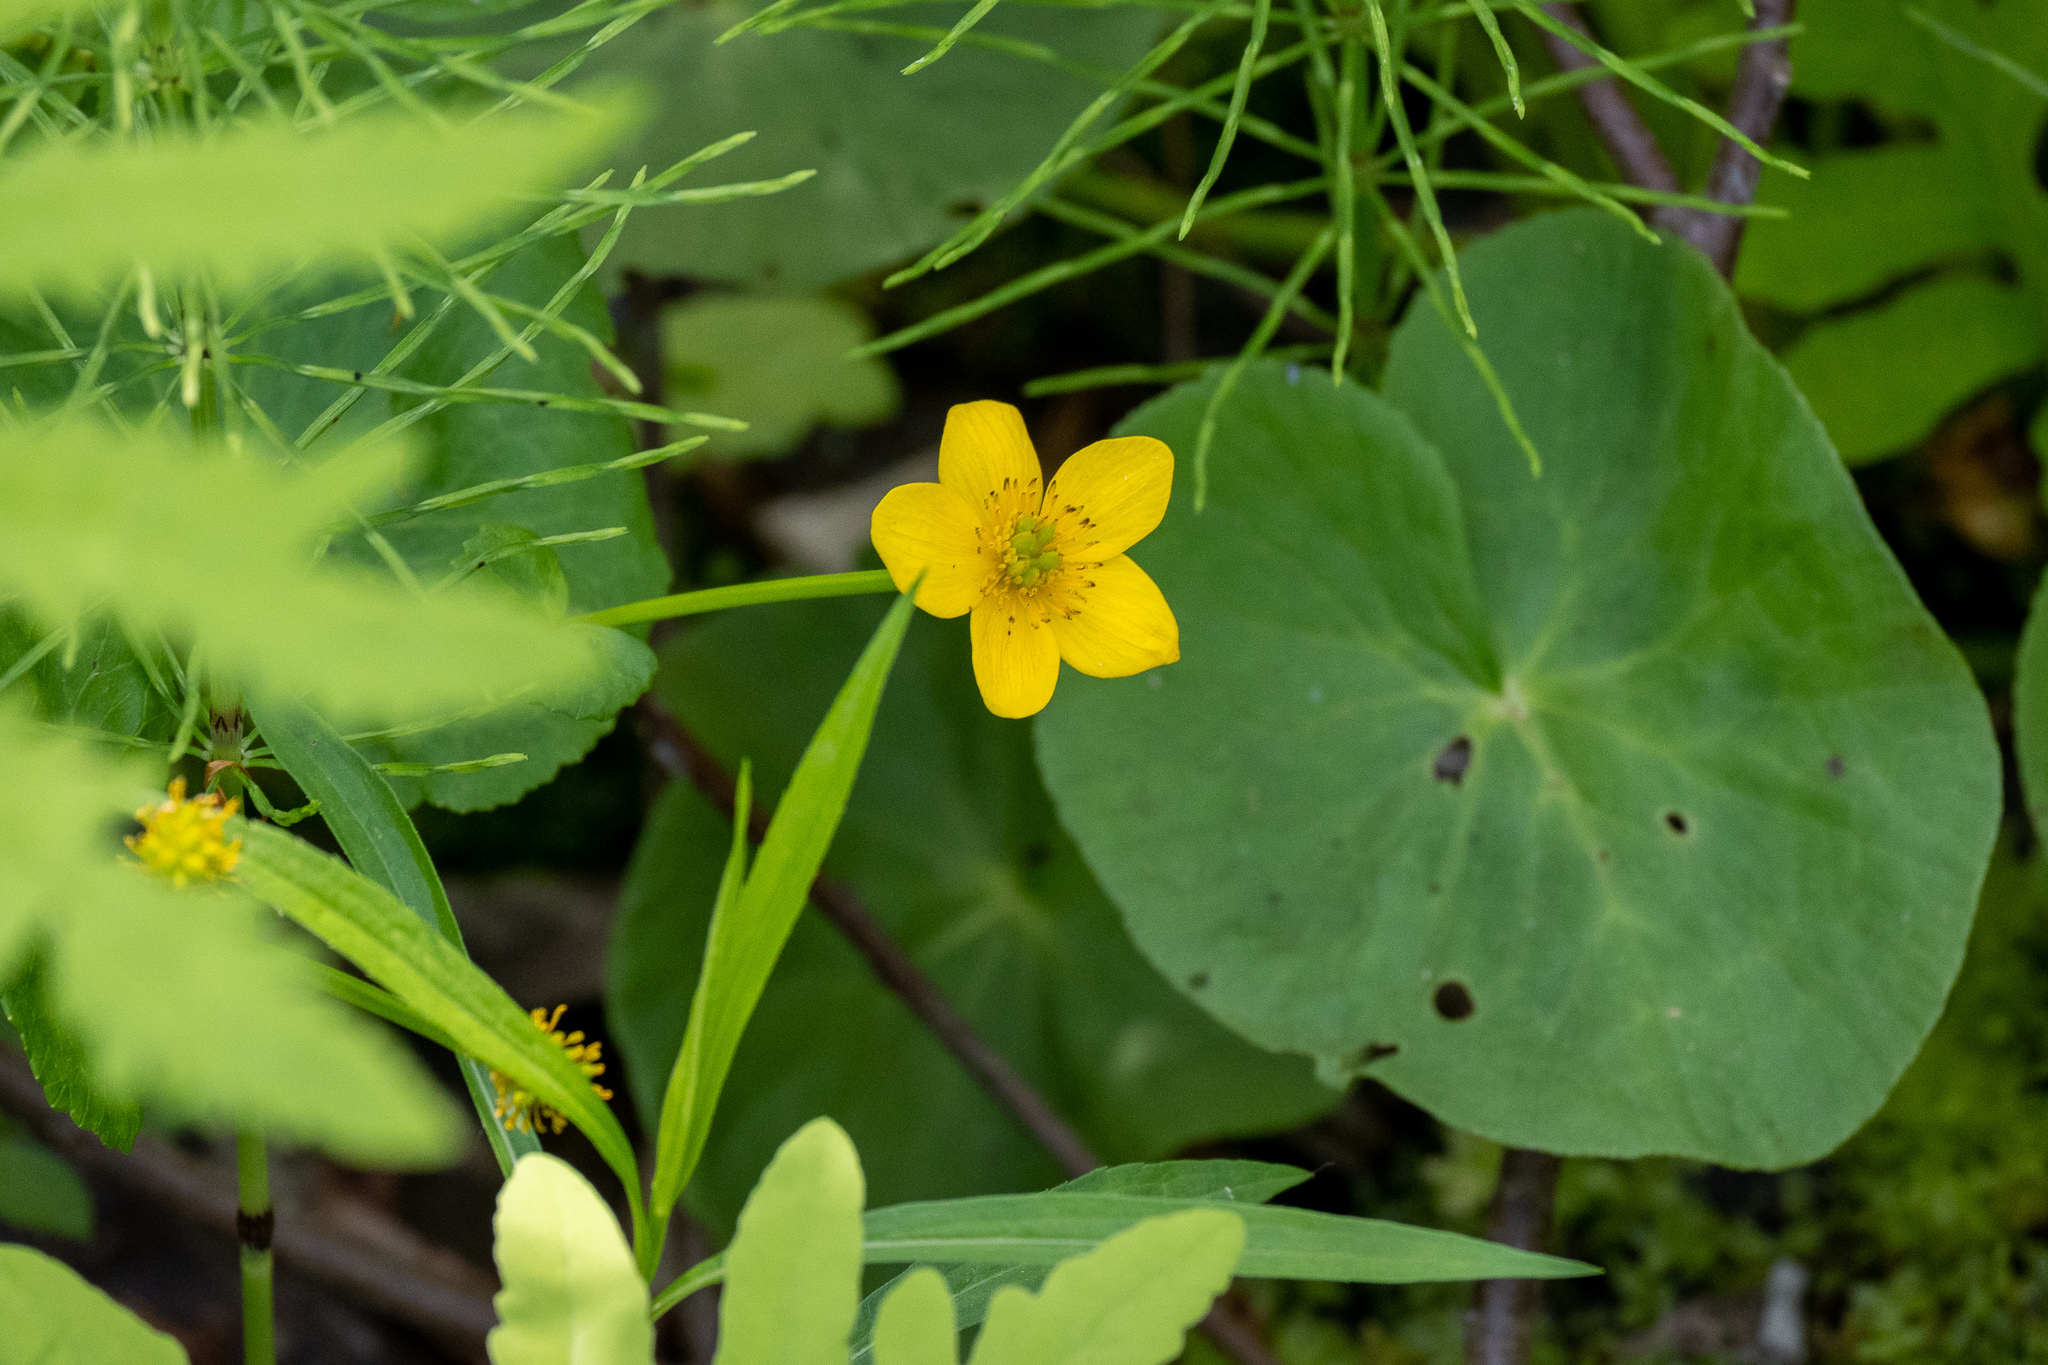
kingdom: Plantae
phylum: Tracheophyta
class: Magnoliopsida
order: Ranunculales
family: Ranunculaceae
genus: Caltha
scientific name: Caltha palustris
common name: Marsh marigold
